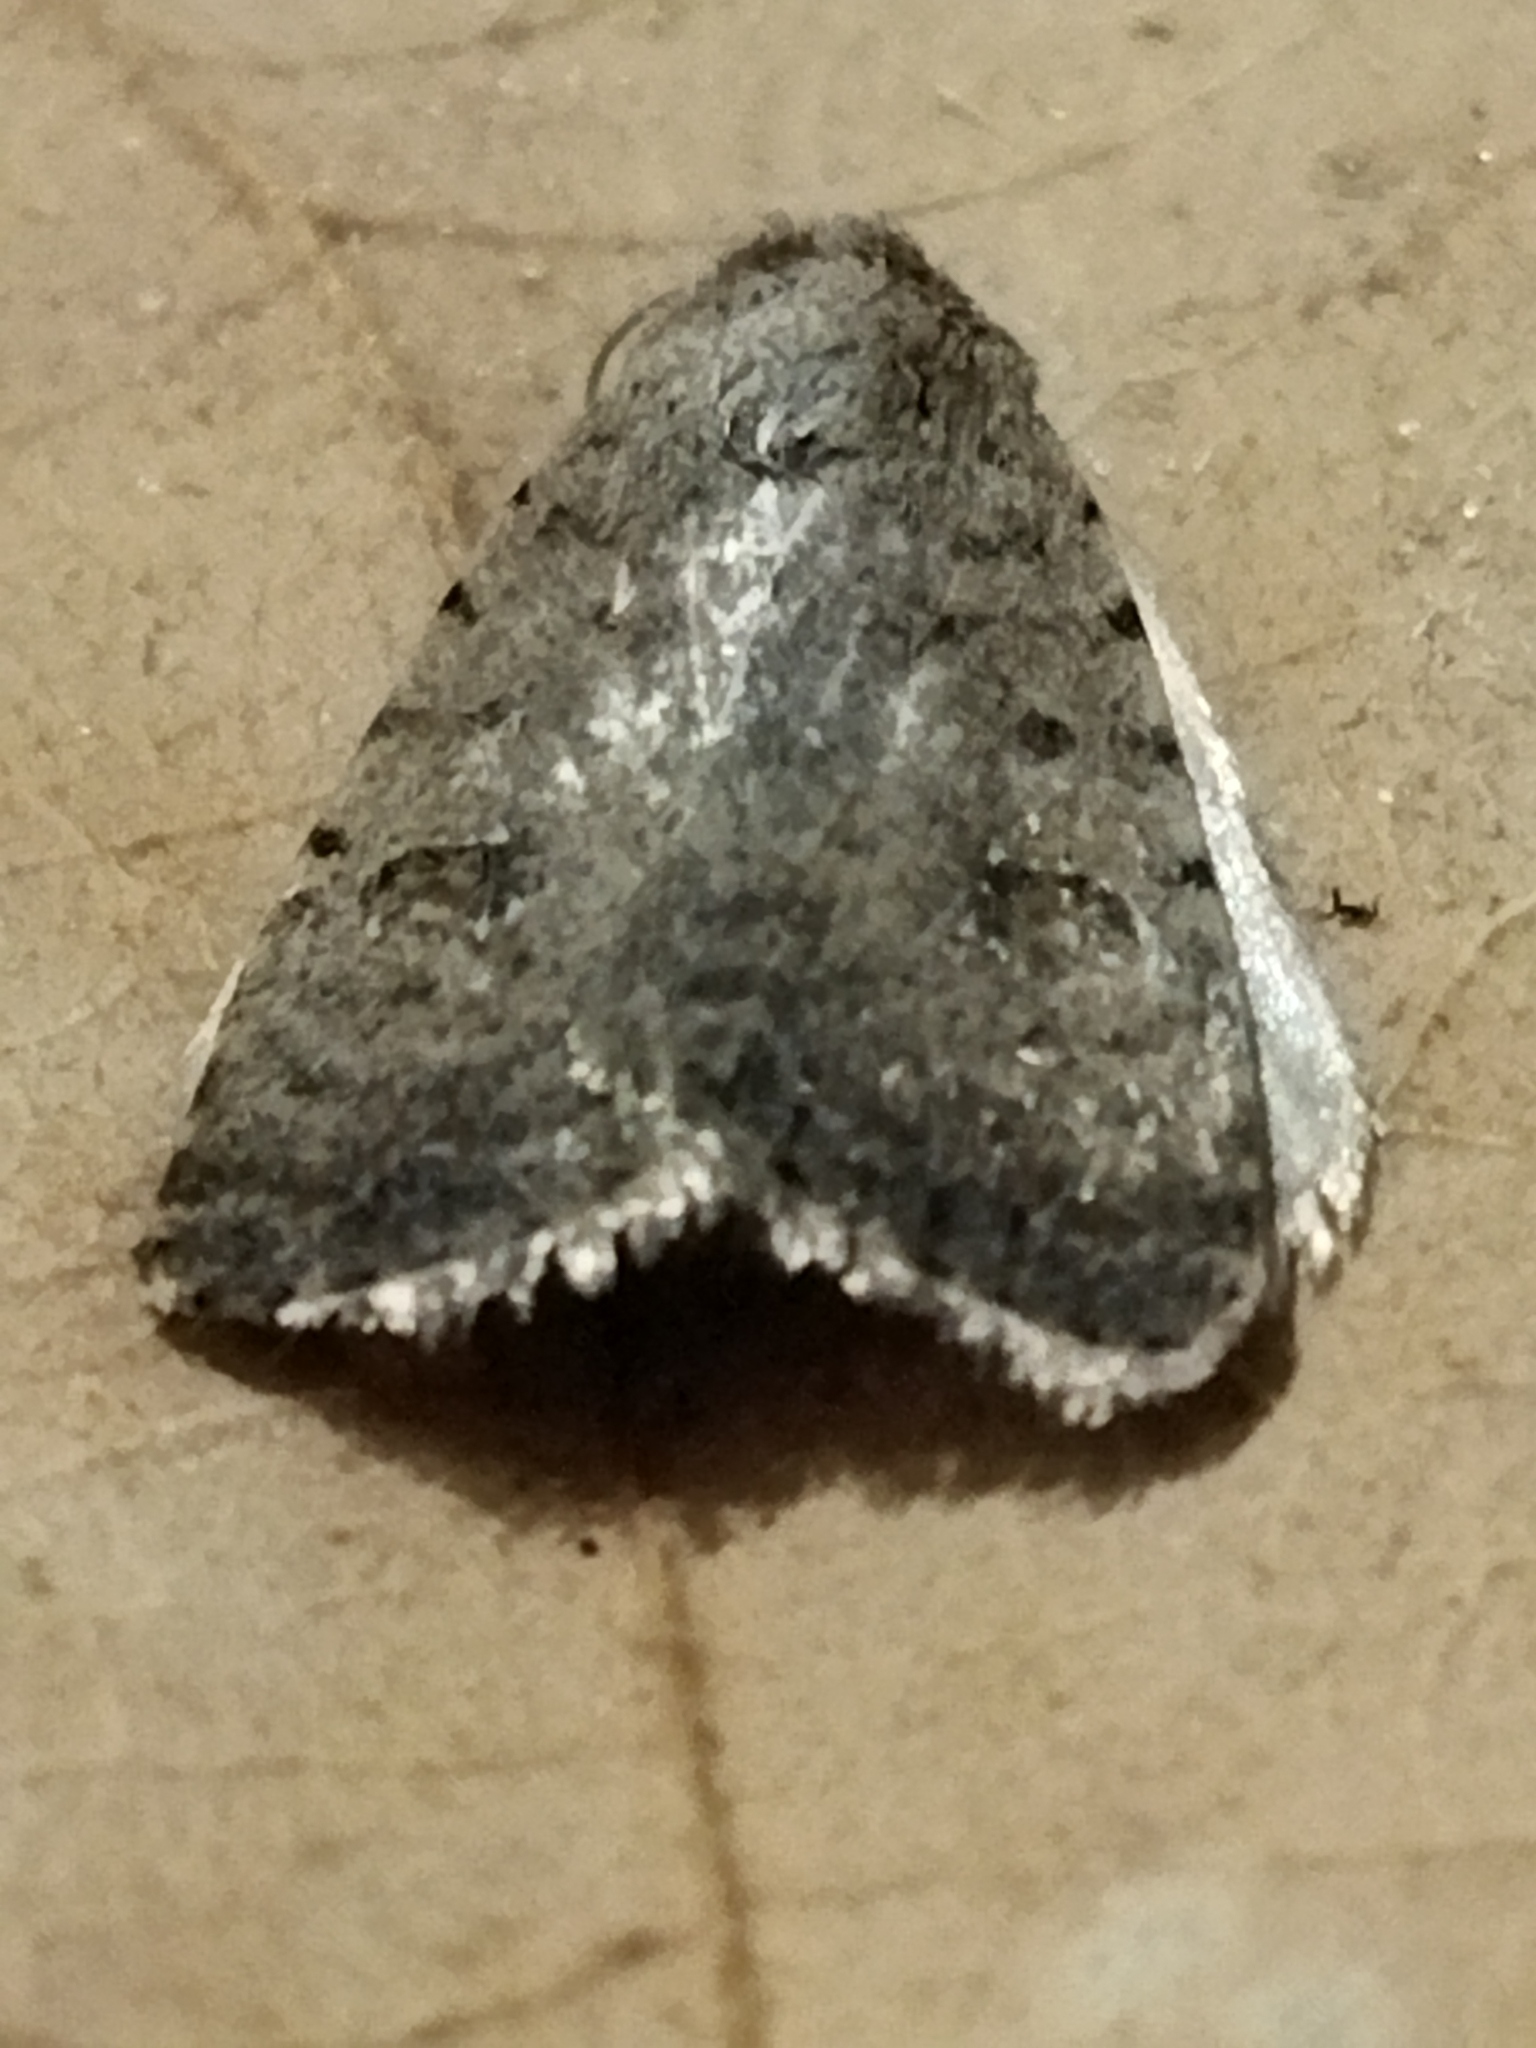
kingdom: Animalia
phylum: Arthropoda
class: Insecta
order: Lepidoptera
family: Noctuidae
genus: Caradrina
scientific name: Caradrina clavipalpis
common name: Pale mottled willow
